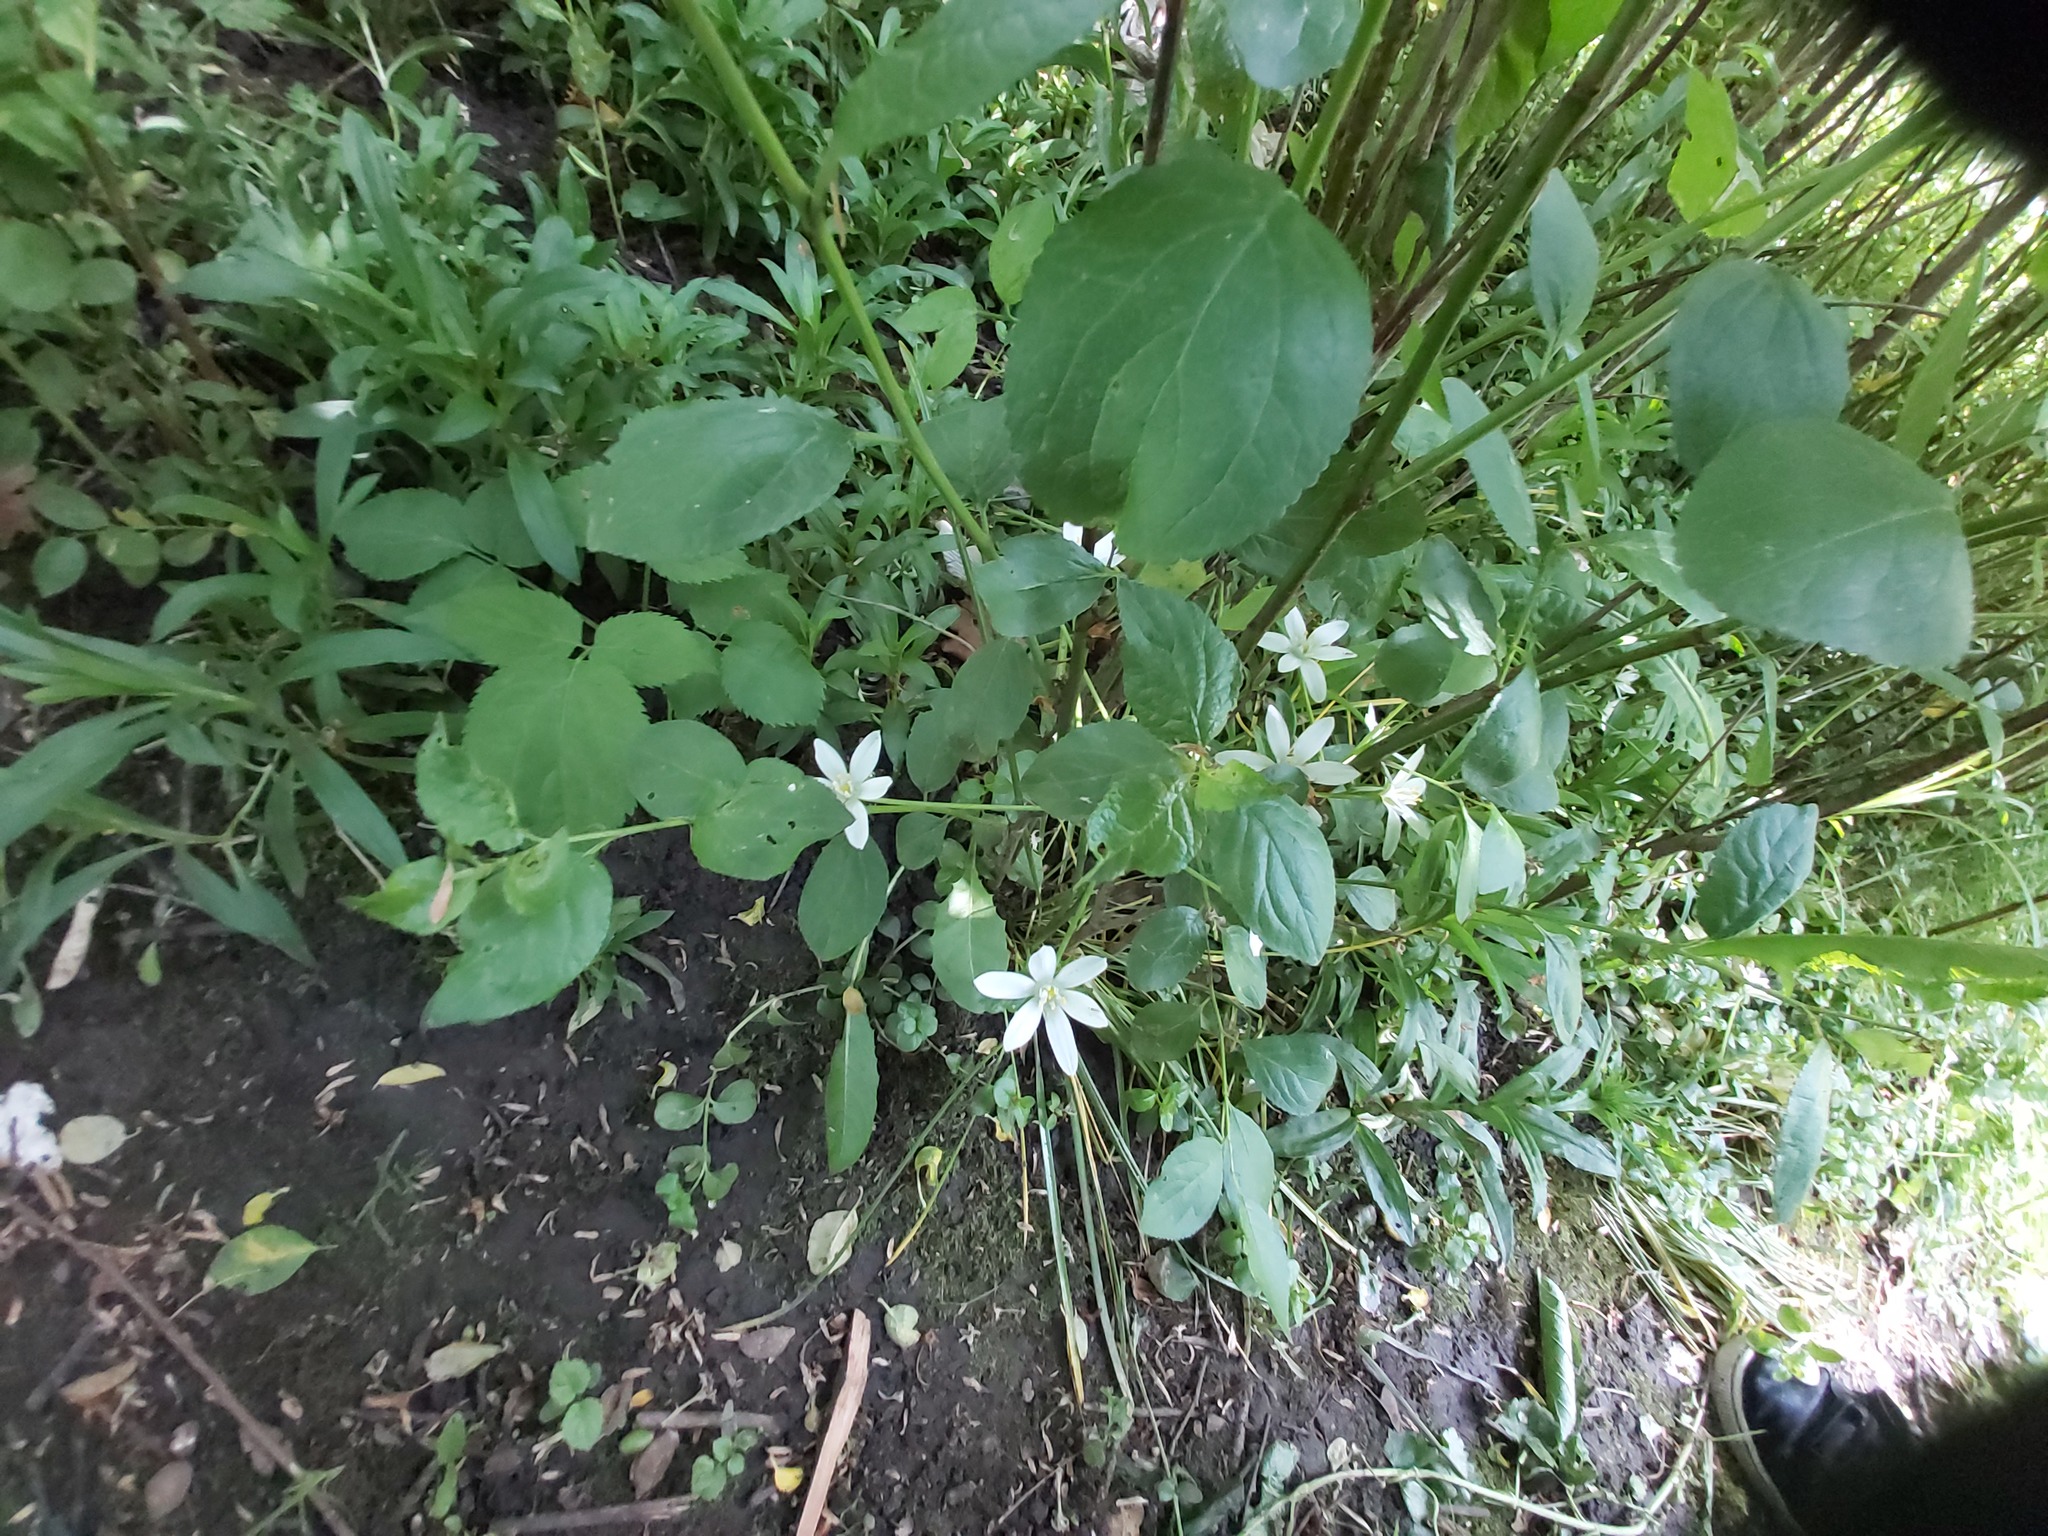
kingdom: Plantae
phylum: Tracheophyta
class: Liliopsida
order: Asparagales
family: Asparagaceae
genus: Ornithogalum
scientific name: Ornithogalum umbellatum
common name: Garden star-of-bethlehem
